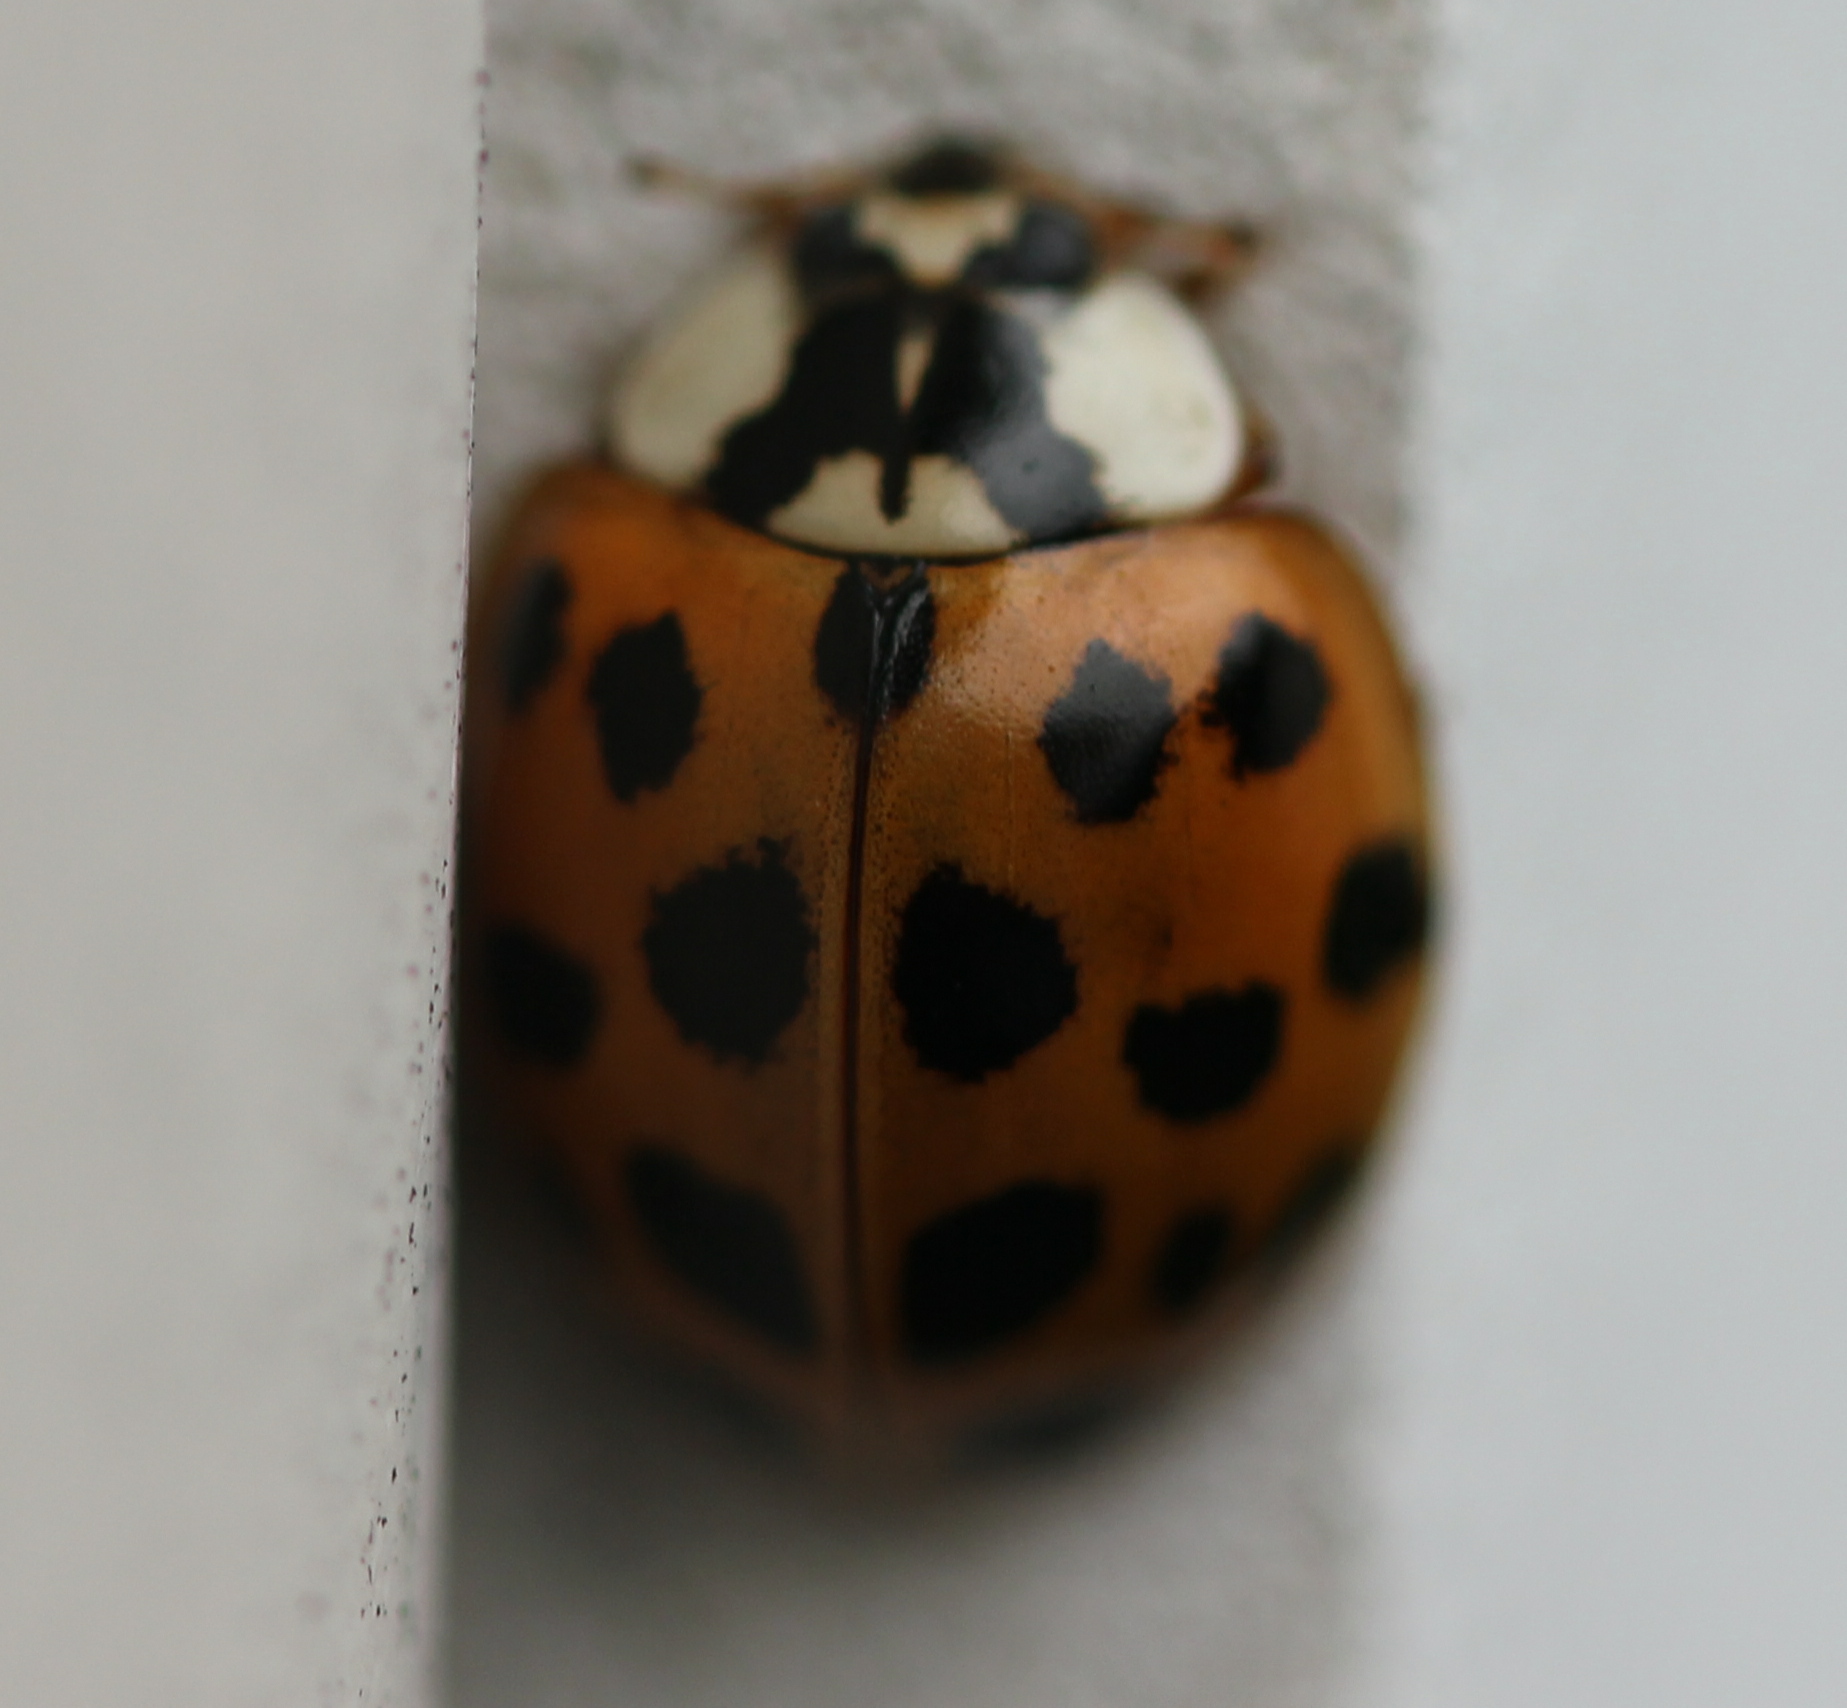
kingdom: Animalia
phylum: Arthropoda
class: Insecta
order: Coleoptera
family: Coccinellidae
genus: Harmonia
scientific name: Harmonia axyridis
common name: Harlequin ladybird
